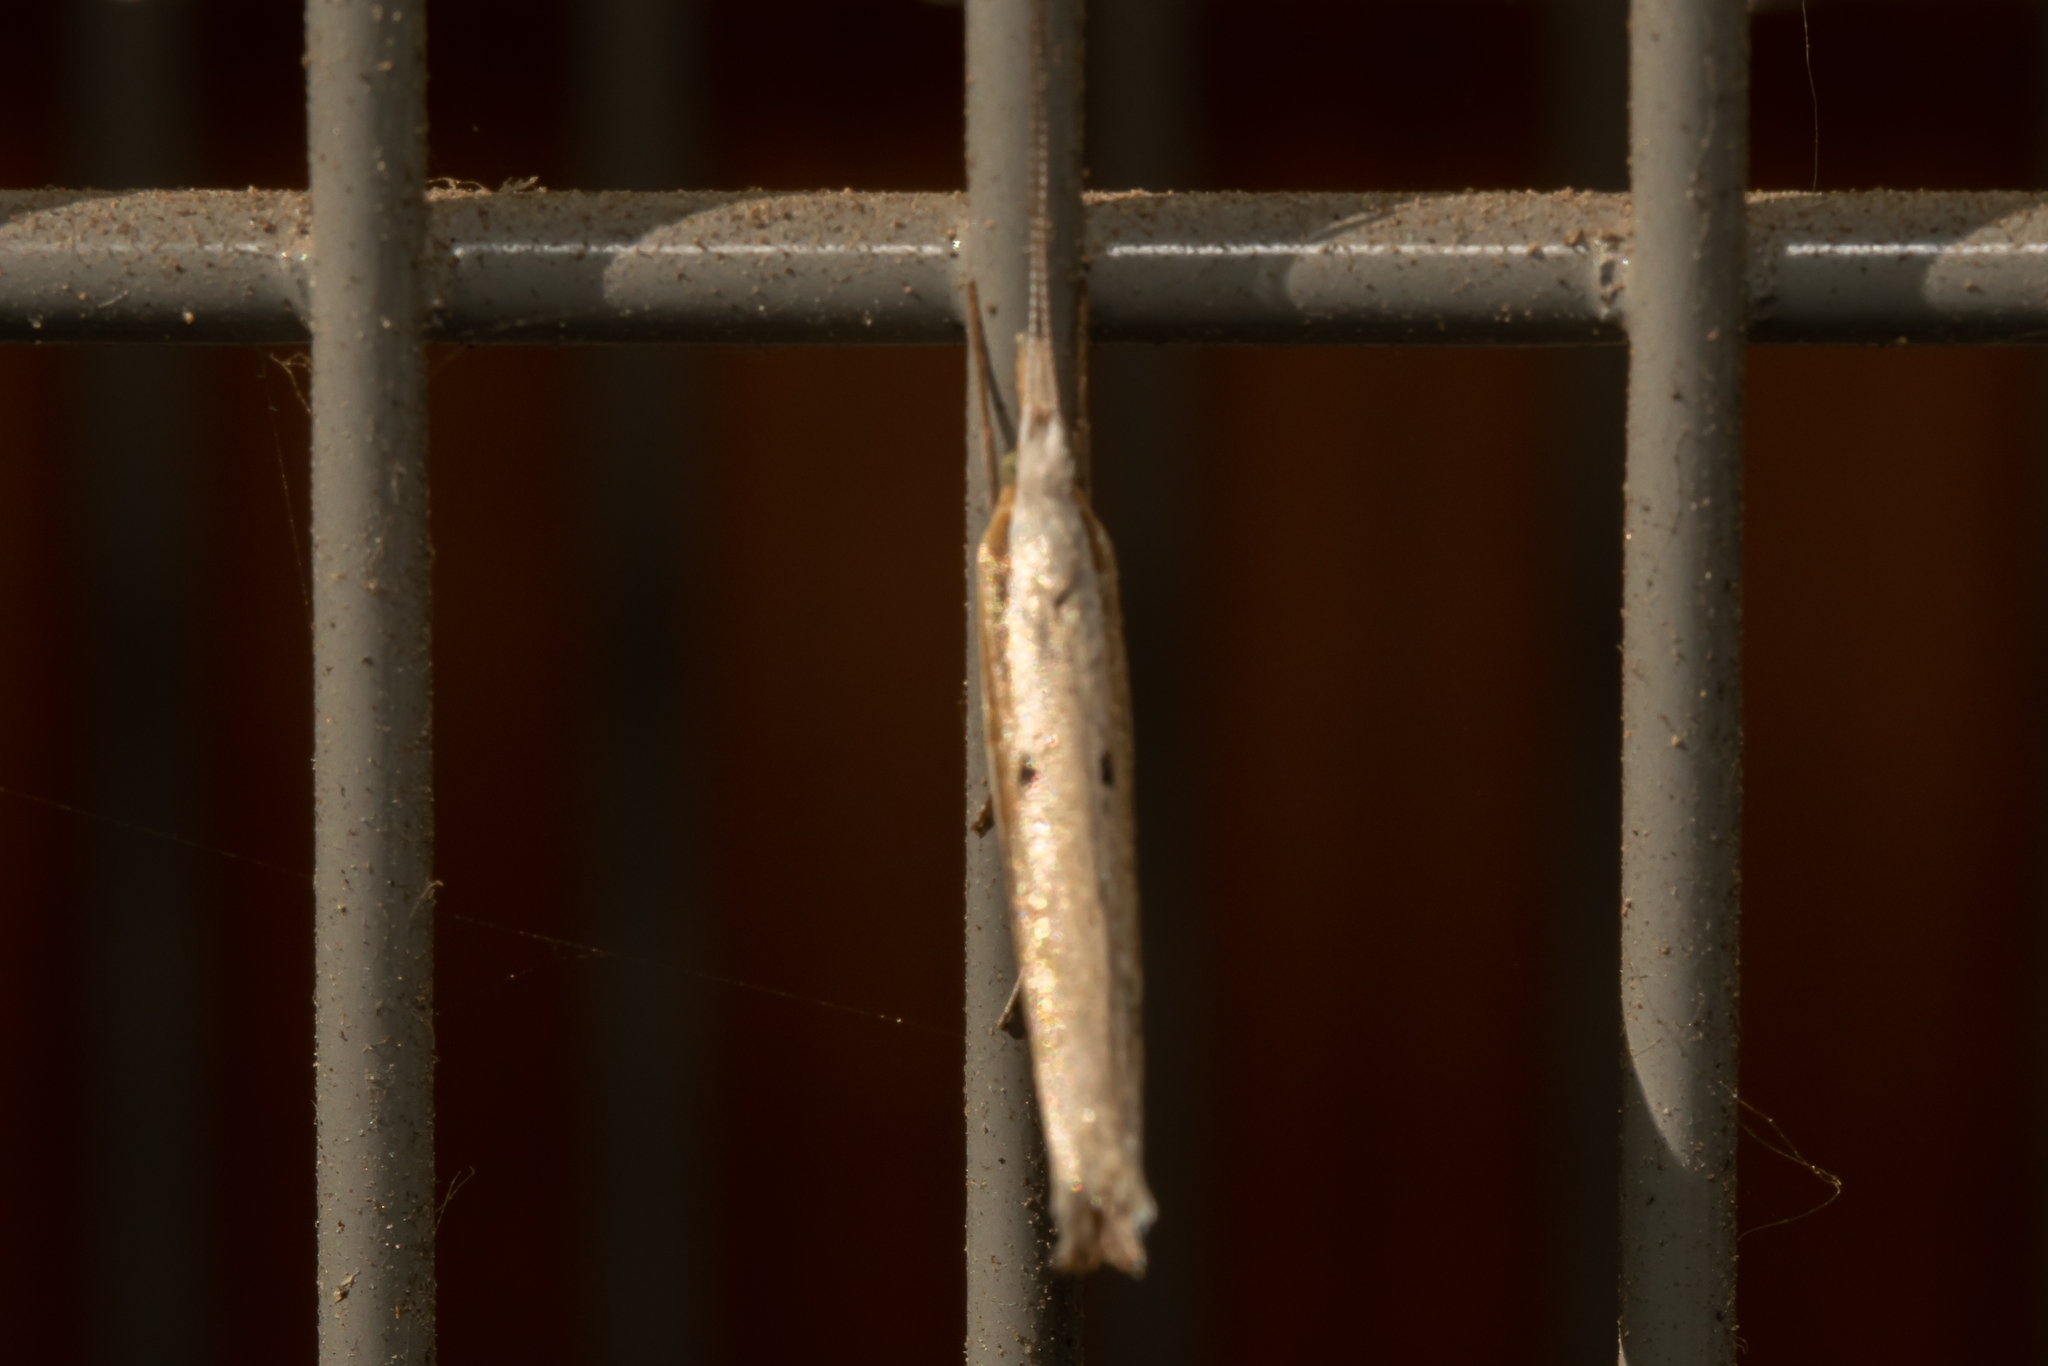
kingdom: Animalia
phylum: Arthropoda
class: Insecta
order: Lepidoptera
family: Ypsolophidae
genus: Ypsolopha
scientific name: Ypsolopha nemorella
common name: Hooked smudge
